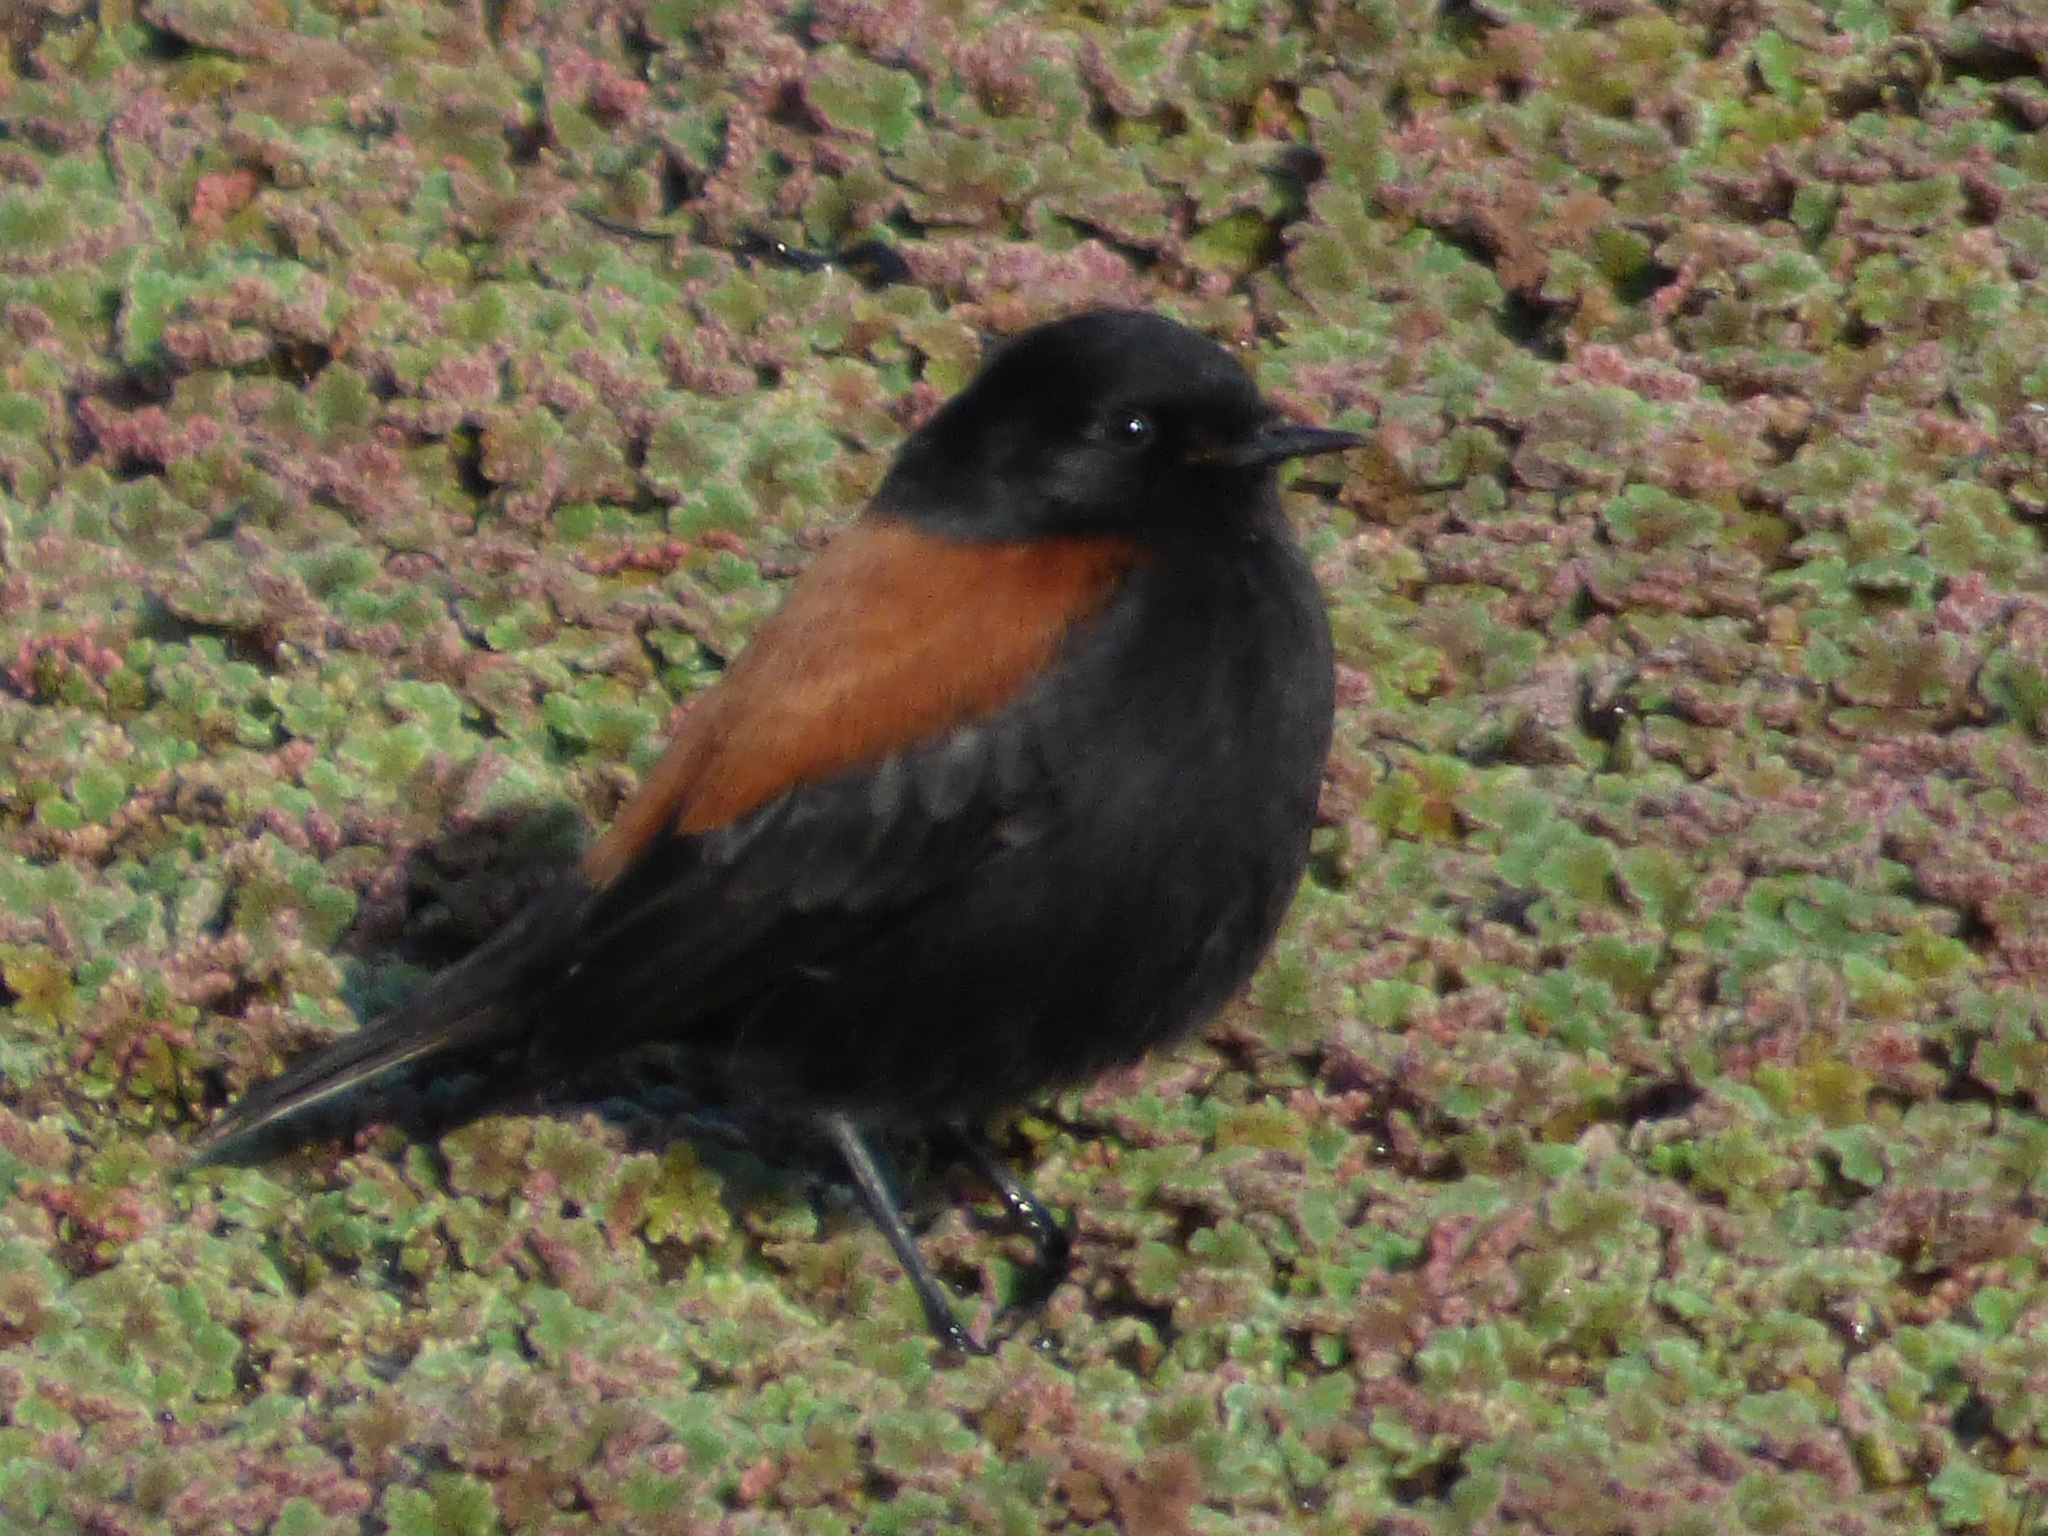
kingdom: Animalia
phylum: Chordata
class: Aves
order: Passeriformes
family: Tyrannidae
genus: Lessonia
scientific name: Lessonia rufa
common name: Austral negrito
